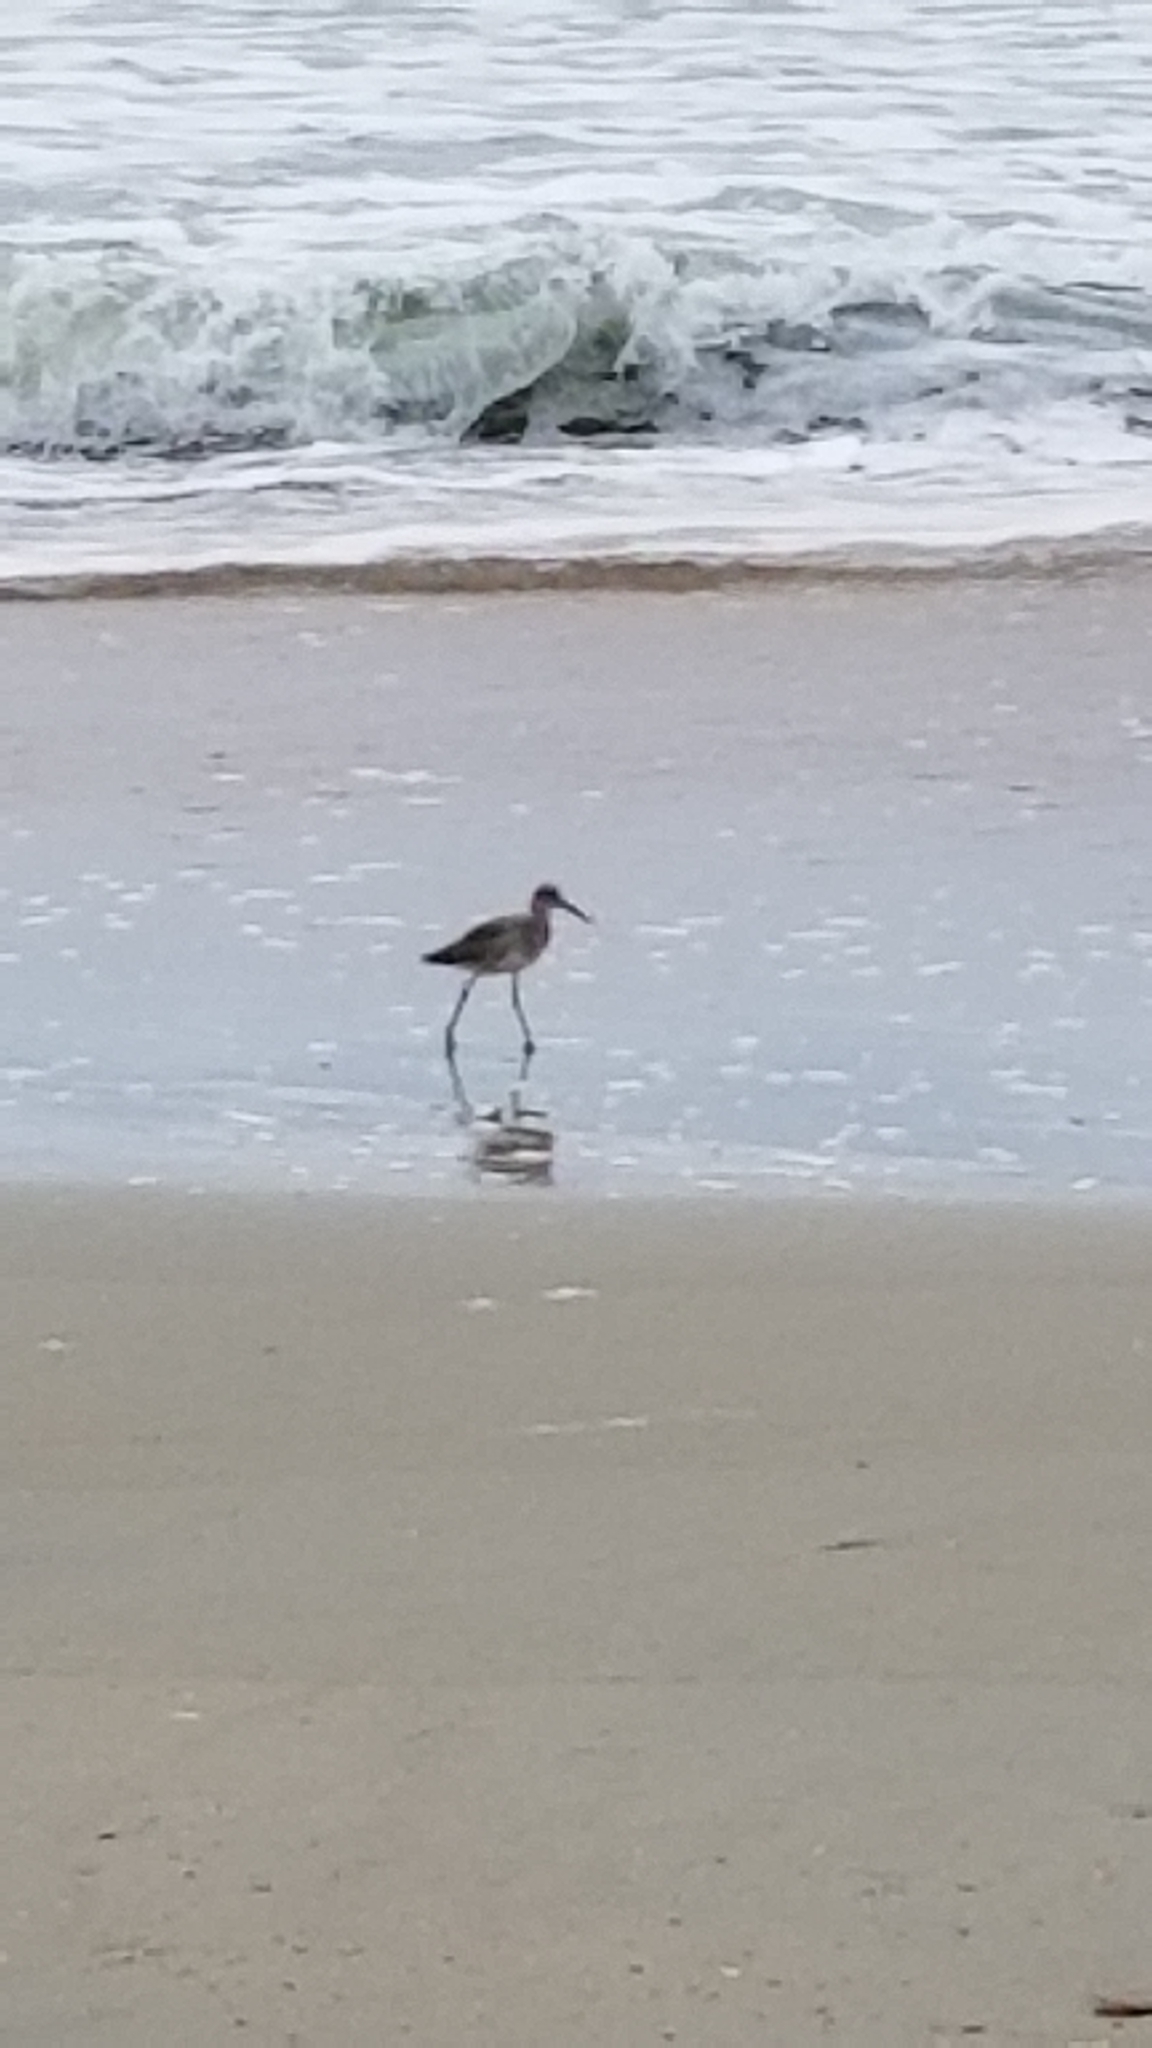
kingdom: Animalia
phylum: Chordata
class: Aves
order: Charadriiformes
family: Scolopacidae
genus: Tringa
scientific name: Tringa semipalmata
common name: Willet
